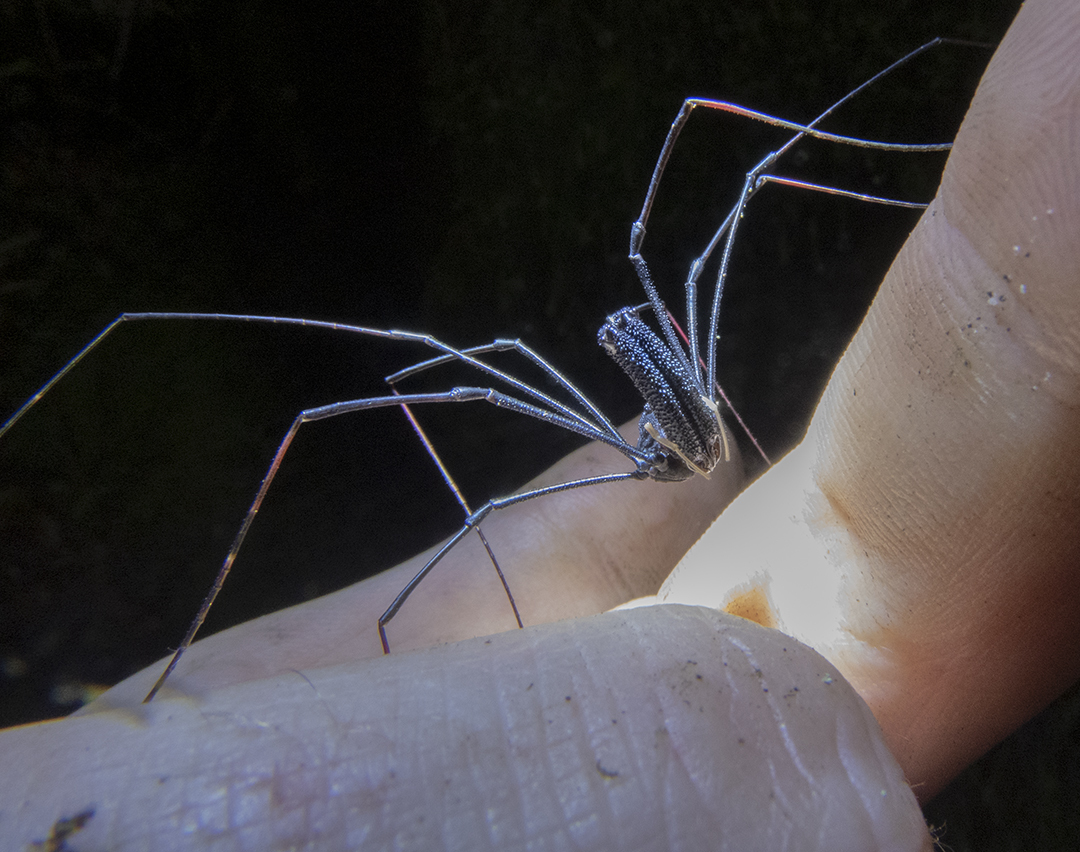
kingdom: Animalia
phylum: Arthropoda
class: Arachnida
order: Opiliones
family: Neopilionidae
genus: Forsteropsalis
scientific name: Forsteropsalis inconstans
